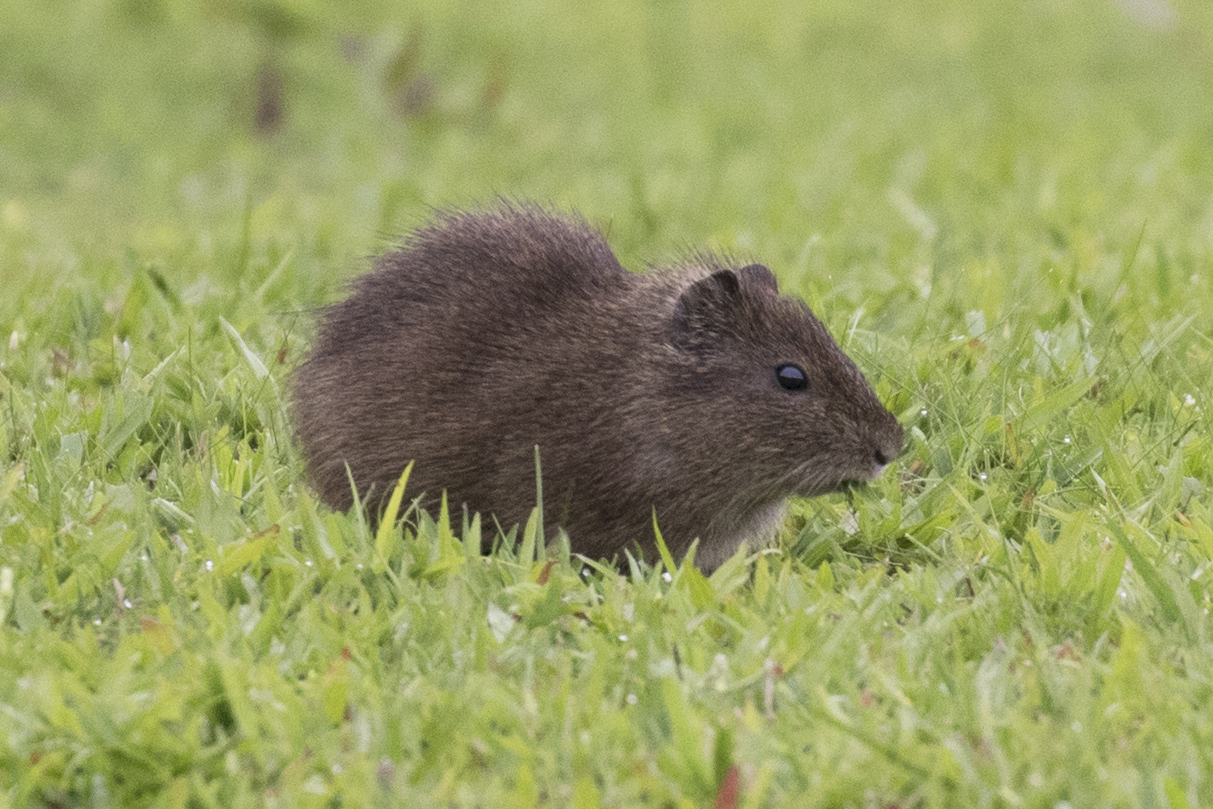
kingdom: Animalia
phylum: Chordata
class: Mammalia
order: Rodentia
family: Caviidae
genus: Cavia
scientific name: Cavia aperea
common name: Brazilian guinea pig
